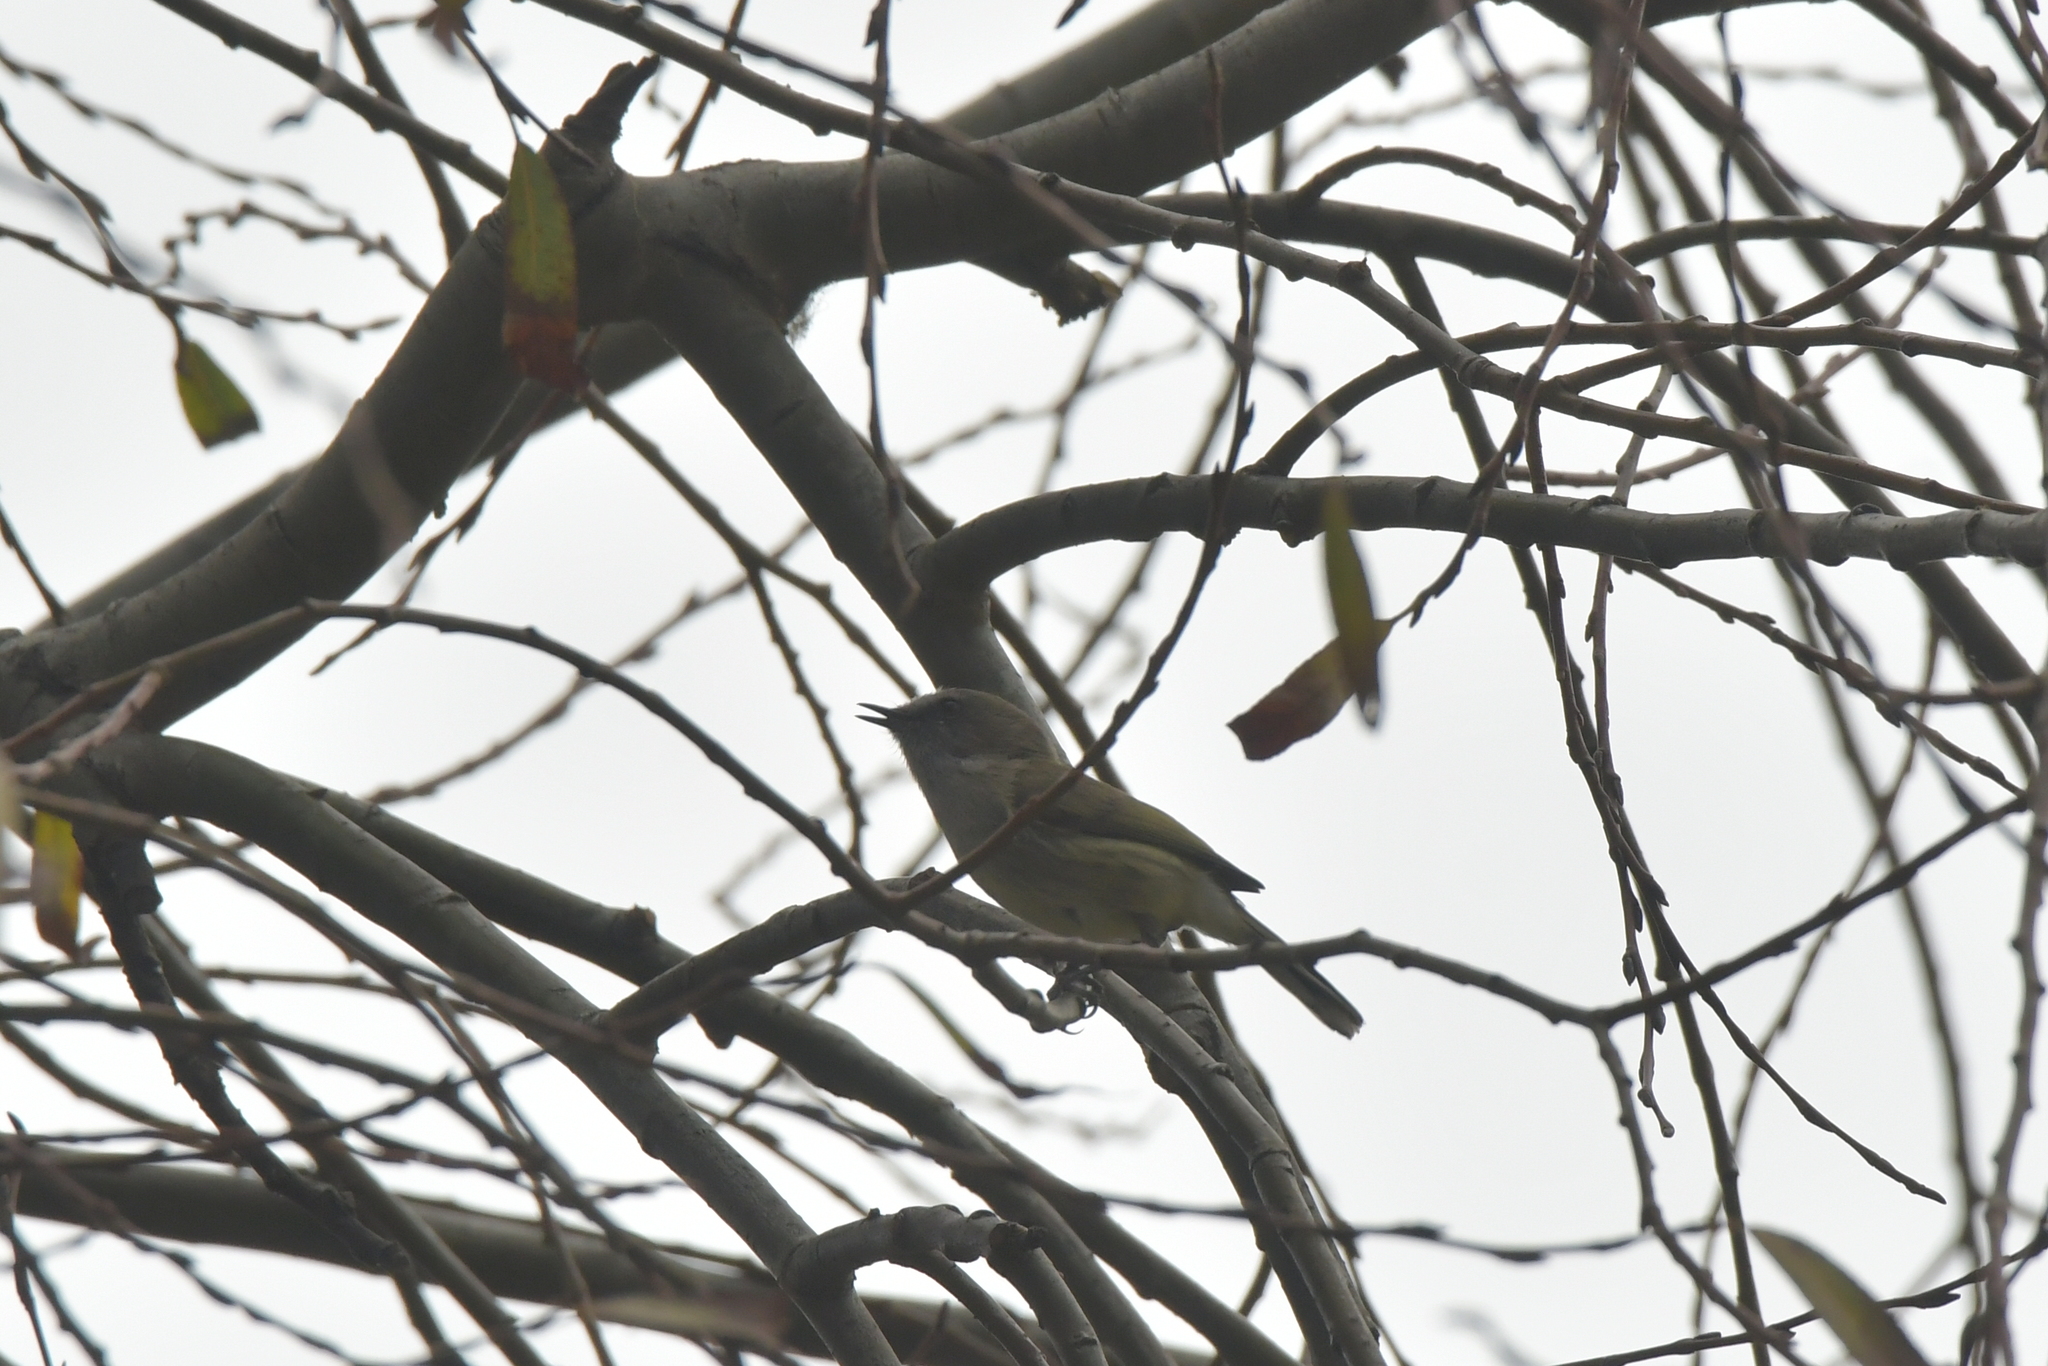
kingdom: Animalia
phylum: Chordata
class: Aves
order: Passeriformes
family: Acanthizidae
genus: Gerygone
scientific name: Gerygone igata
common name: Grey gerygone
